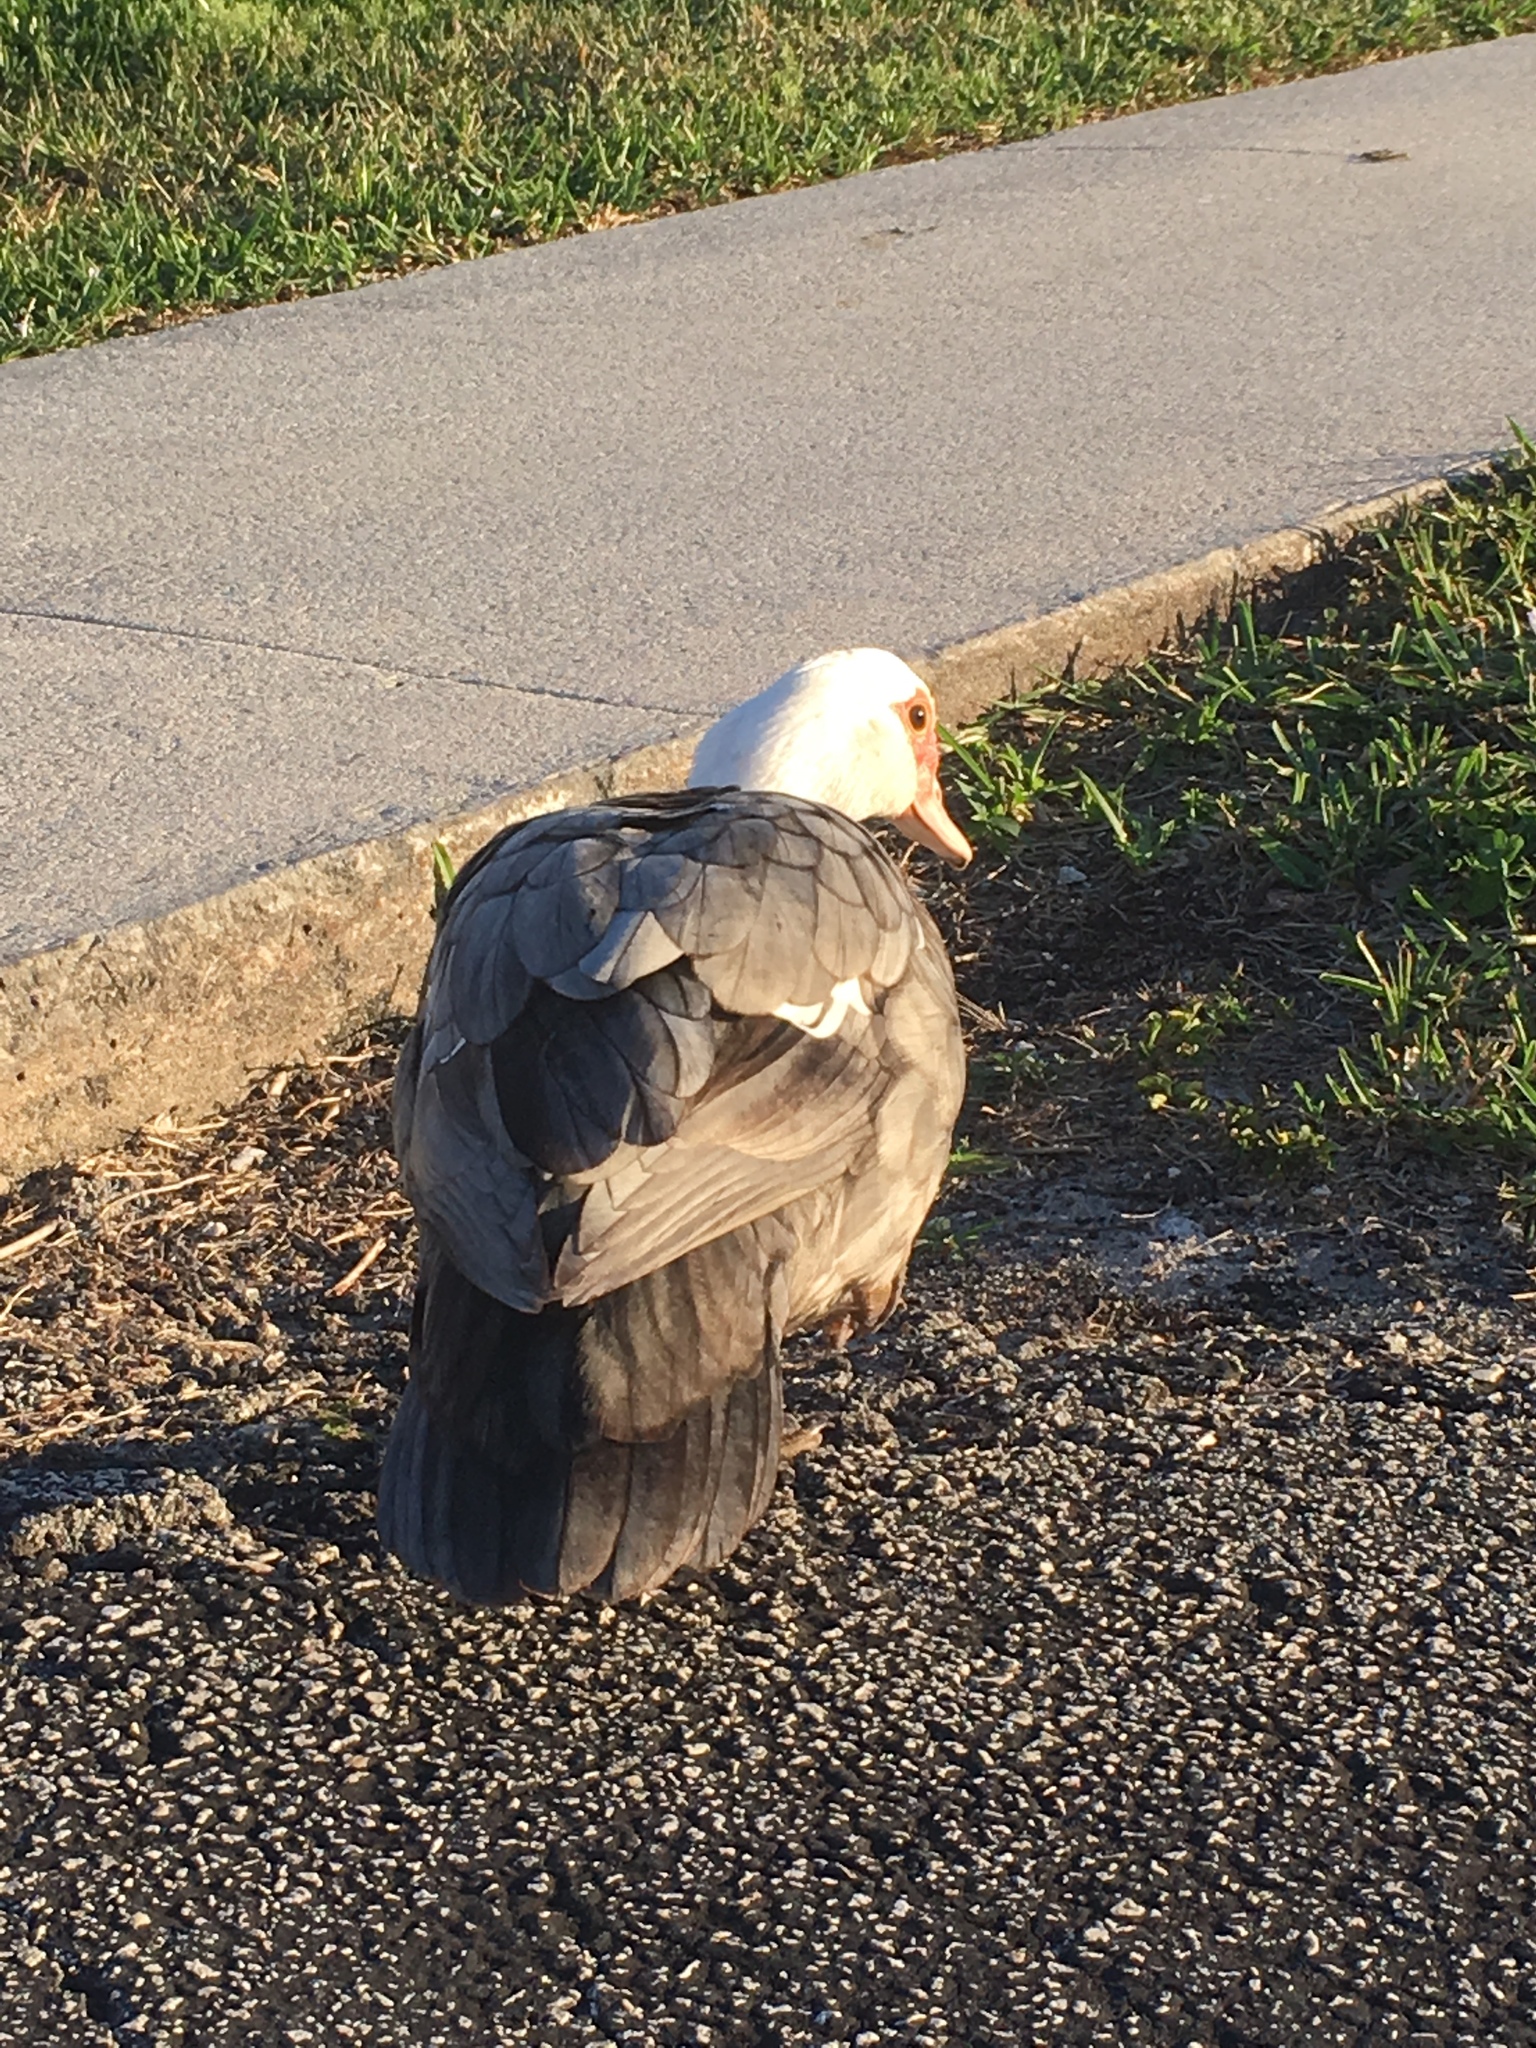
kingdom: Animalia
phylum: Chordata
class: Aves
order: Anseriformes
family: Anatidae
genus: Cairina
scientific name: Cairina moschata
